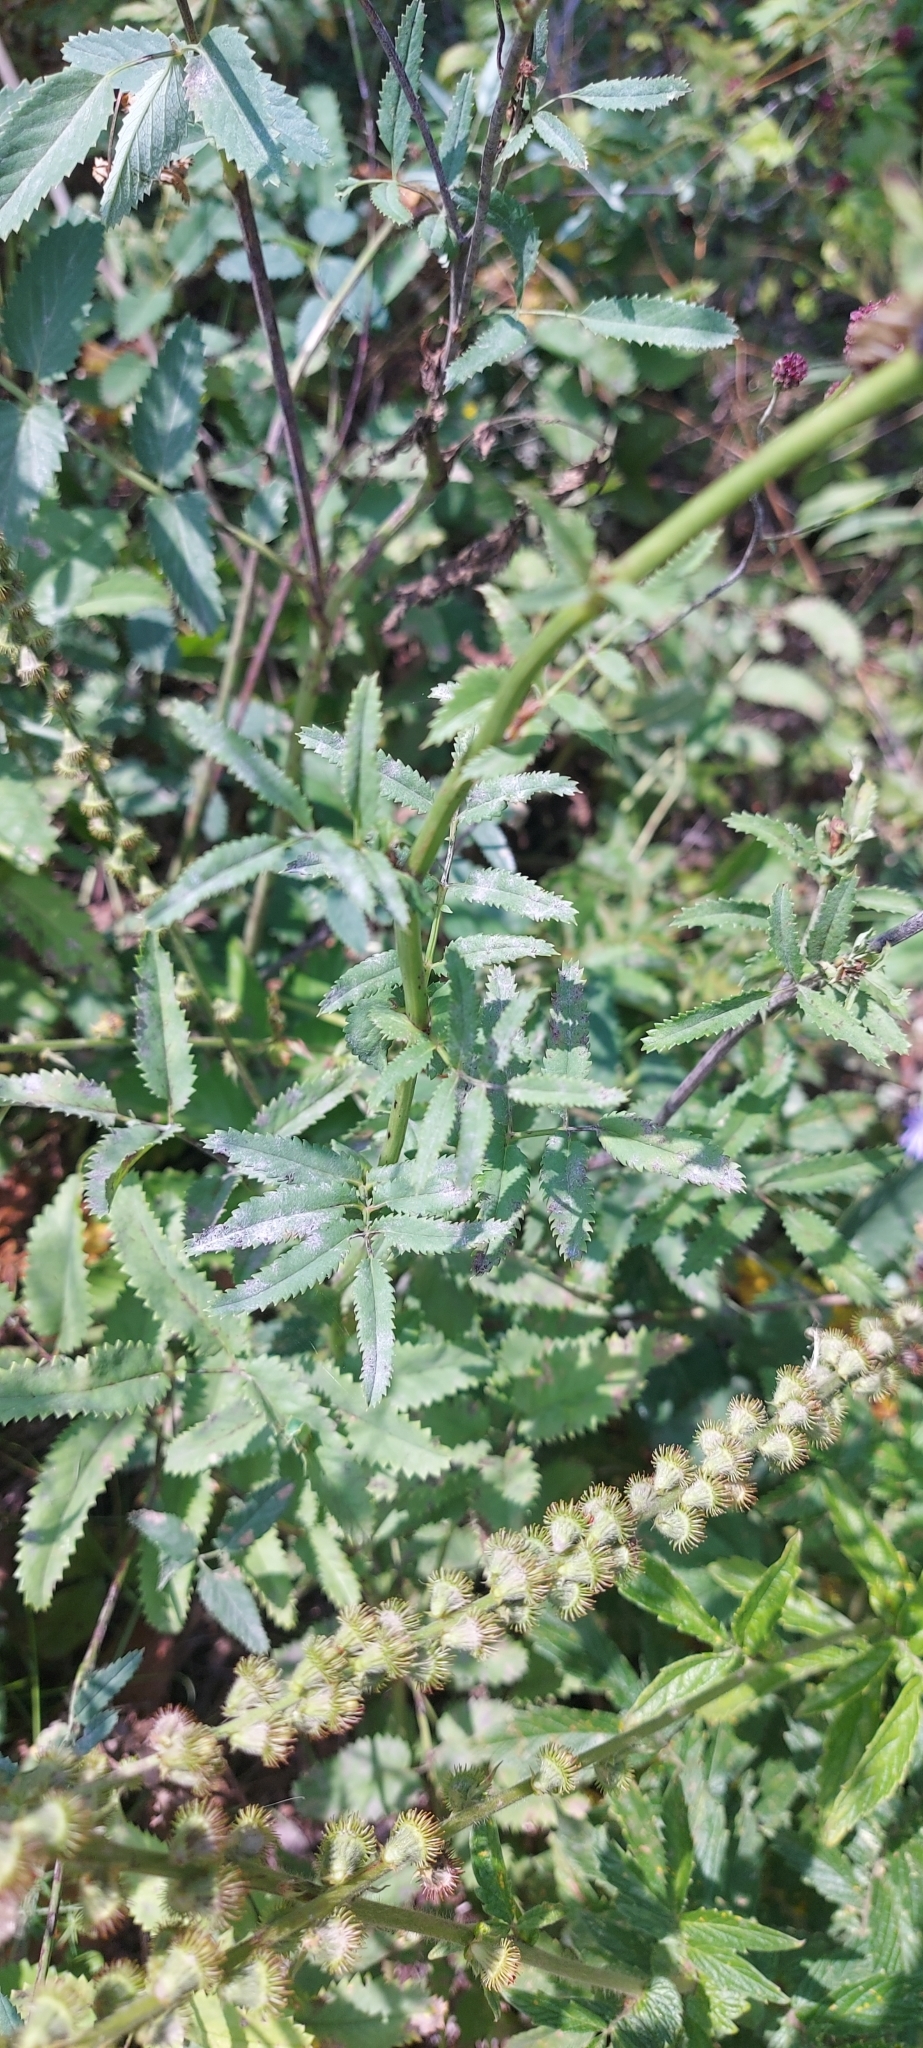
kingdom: Plantae
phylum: Tracheophyta
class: Magnoliopsida
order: Rosales
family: Rosaceae
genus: Sanguisorba
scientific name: Sanguisorba officinalis
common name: Great burnet
